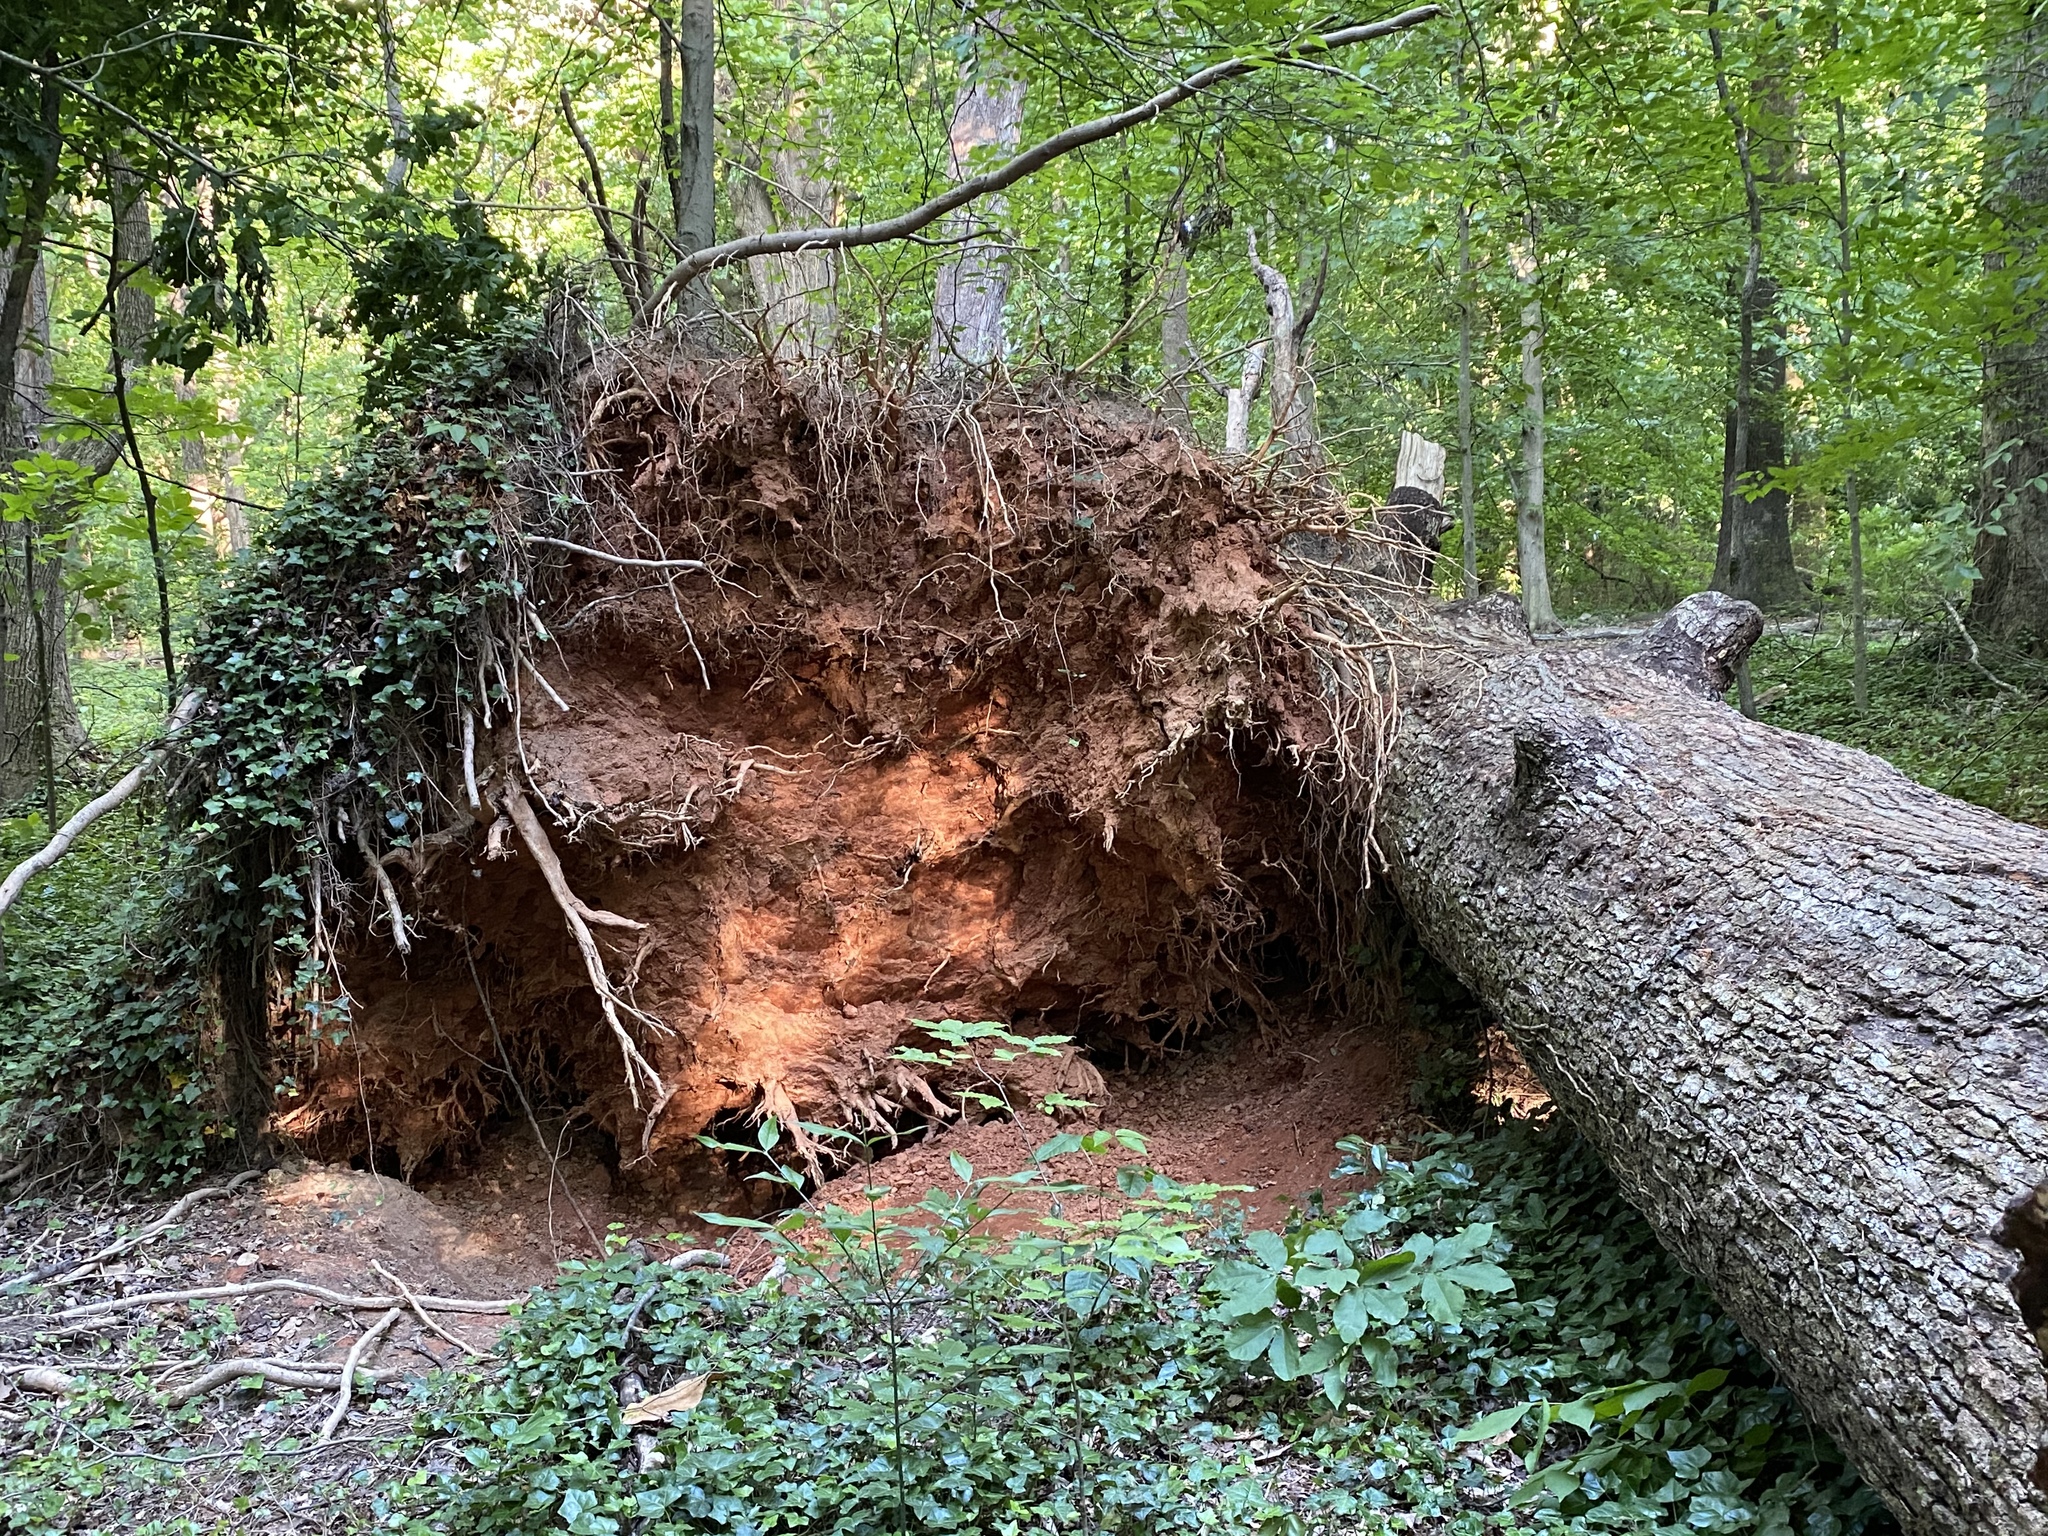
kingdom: Plantae
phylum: Tracheophyta
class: Magnoliopsida
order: Magnoliales
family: Magnoliaceae
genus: Liriodendron
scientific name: Liriodendron tulipifera
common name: Tulip tree
